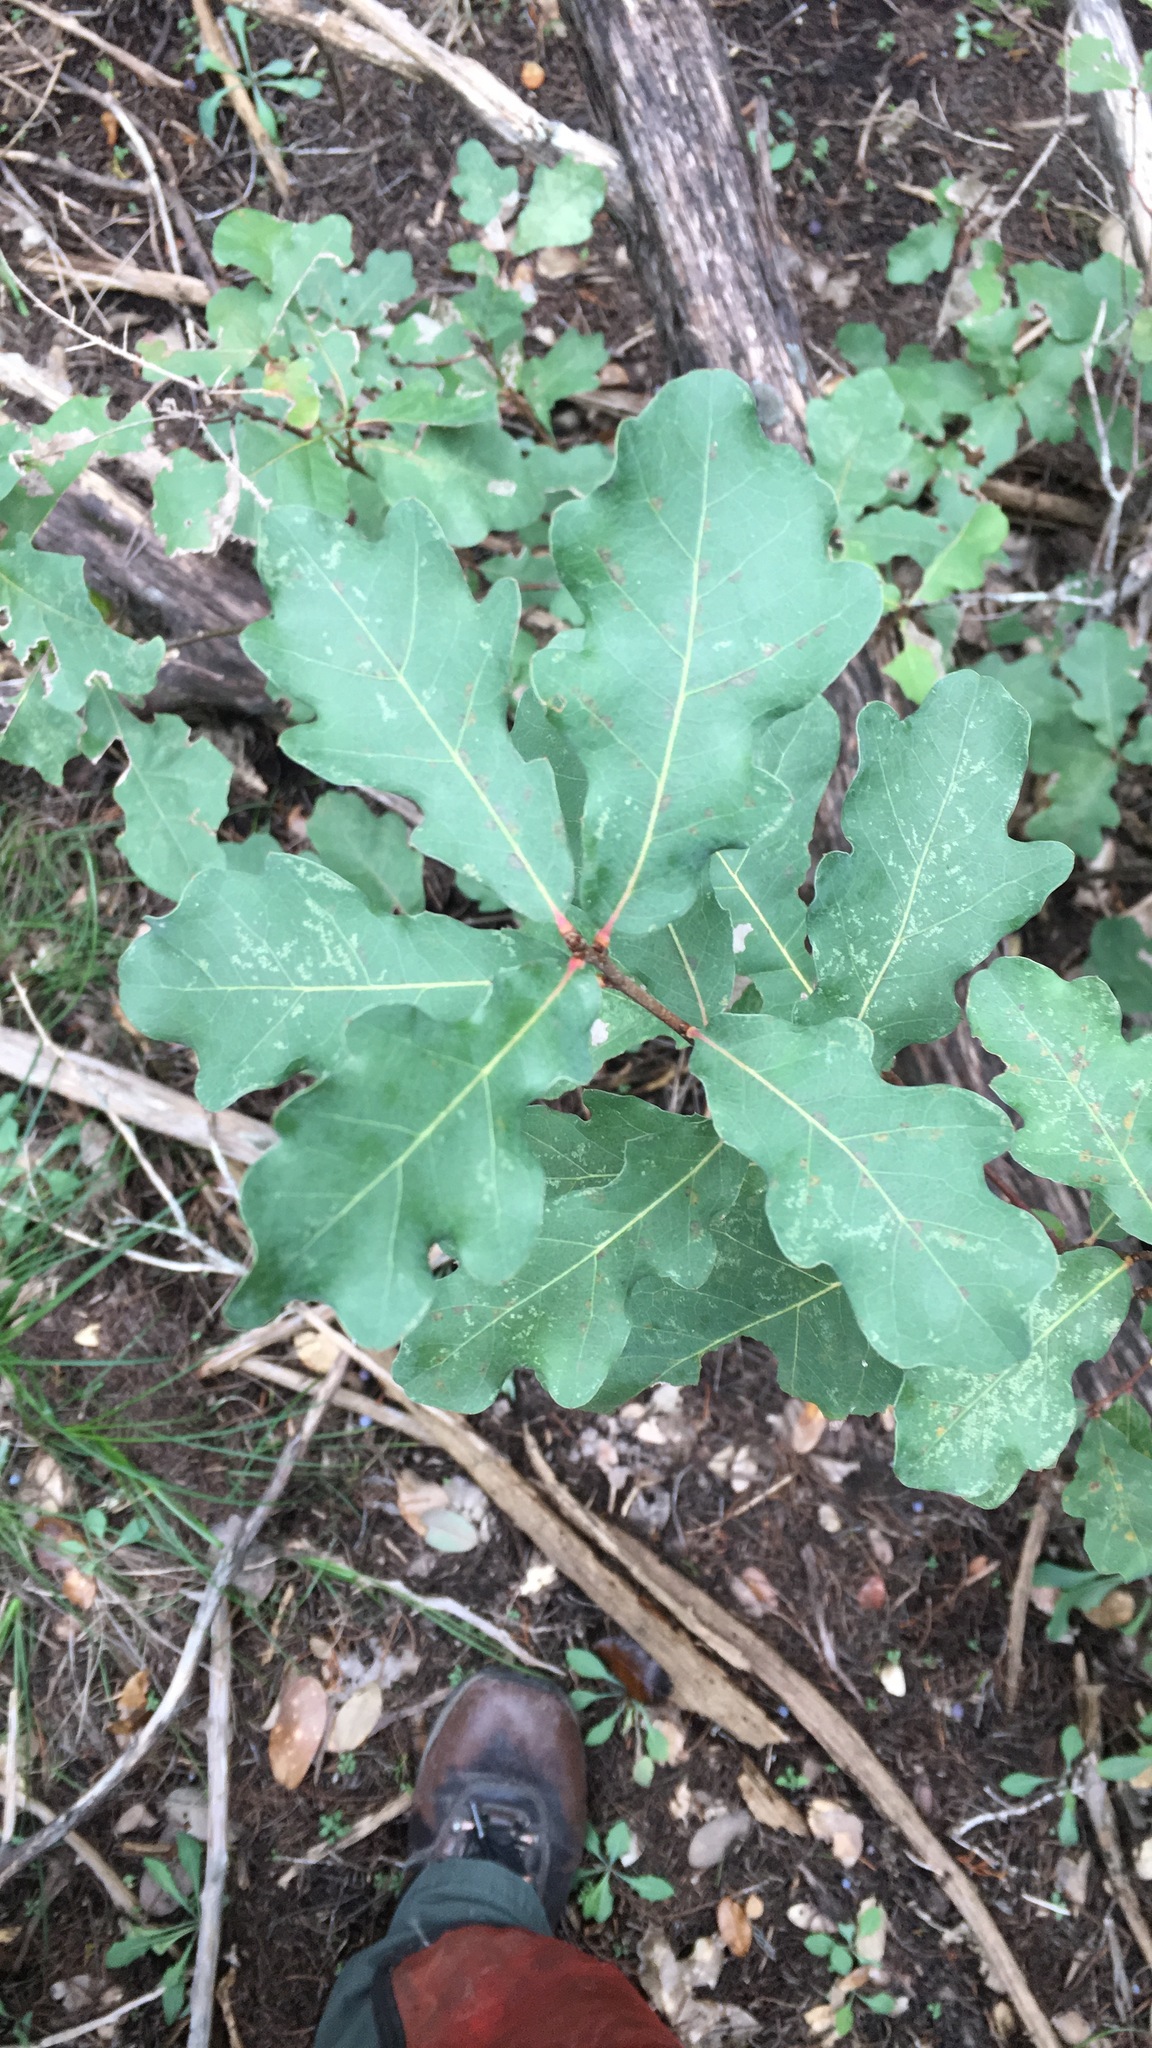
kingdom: Plantae
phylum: Tracheophyta
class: Magnoliopsida
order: Fagales
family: Fagaceae
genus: Quercus
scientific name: Quercus laceyi
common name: Lacey oak
